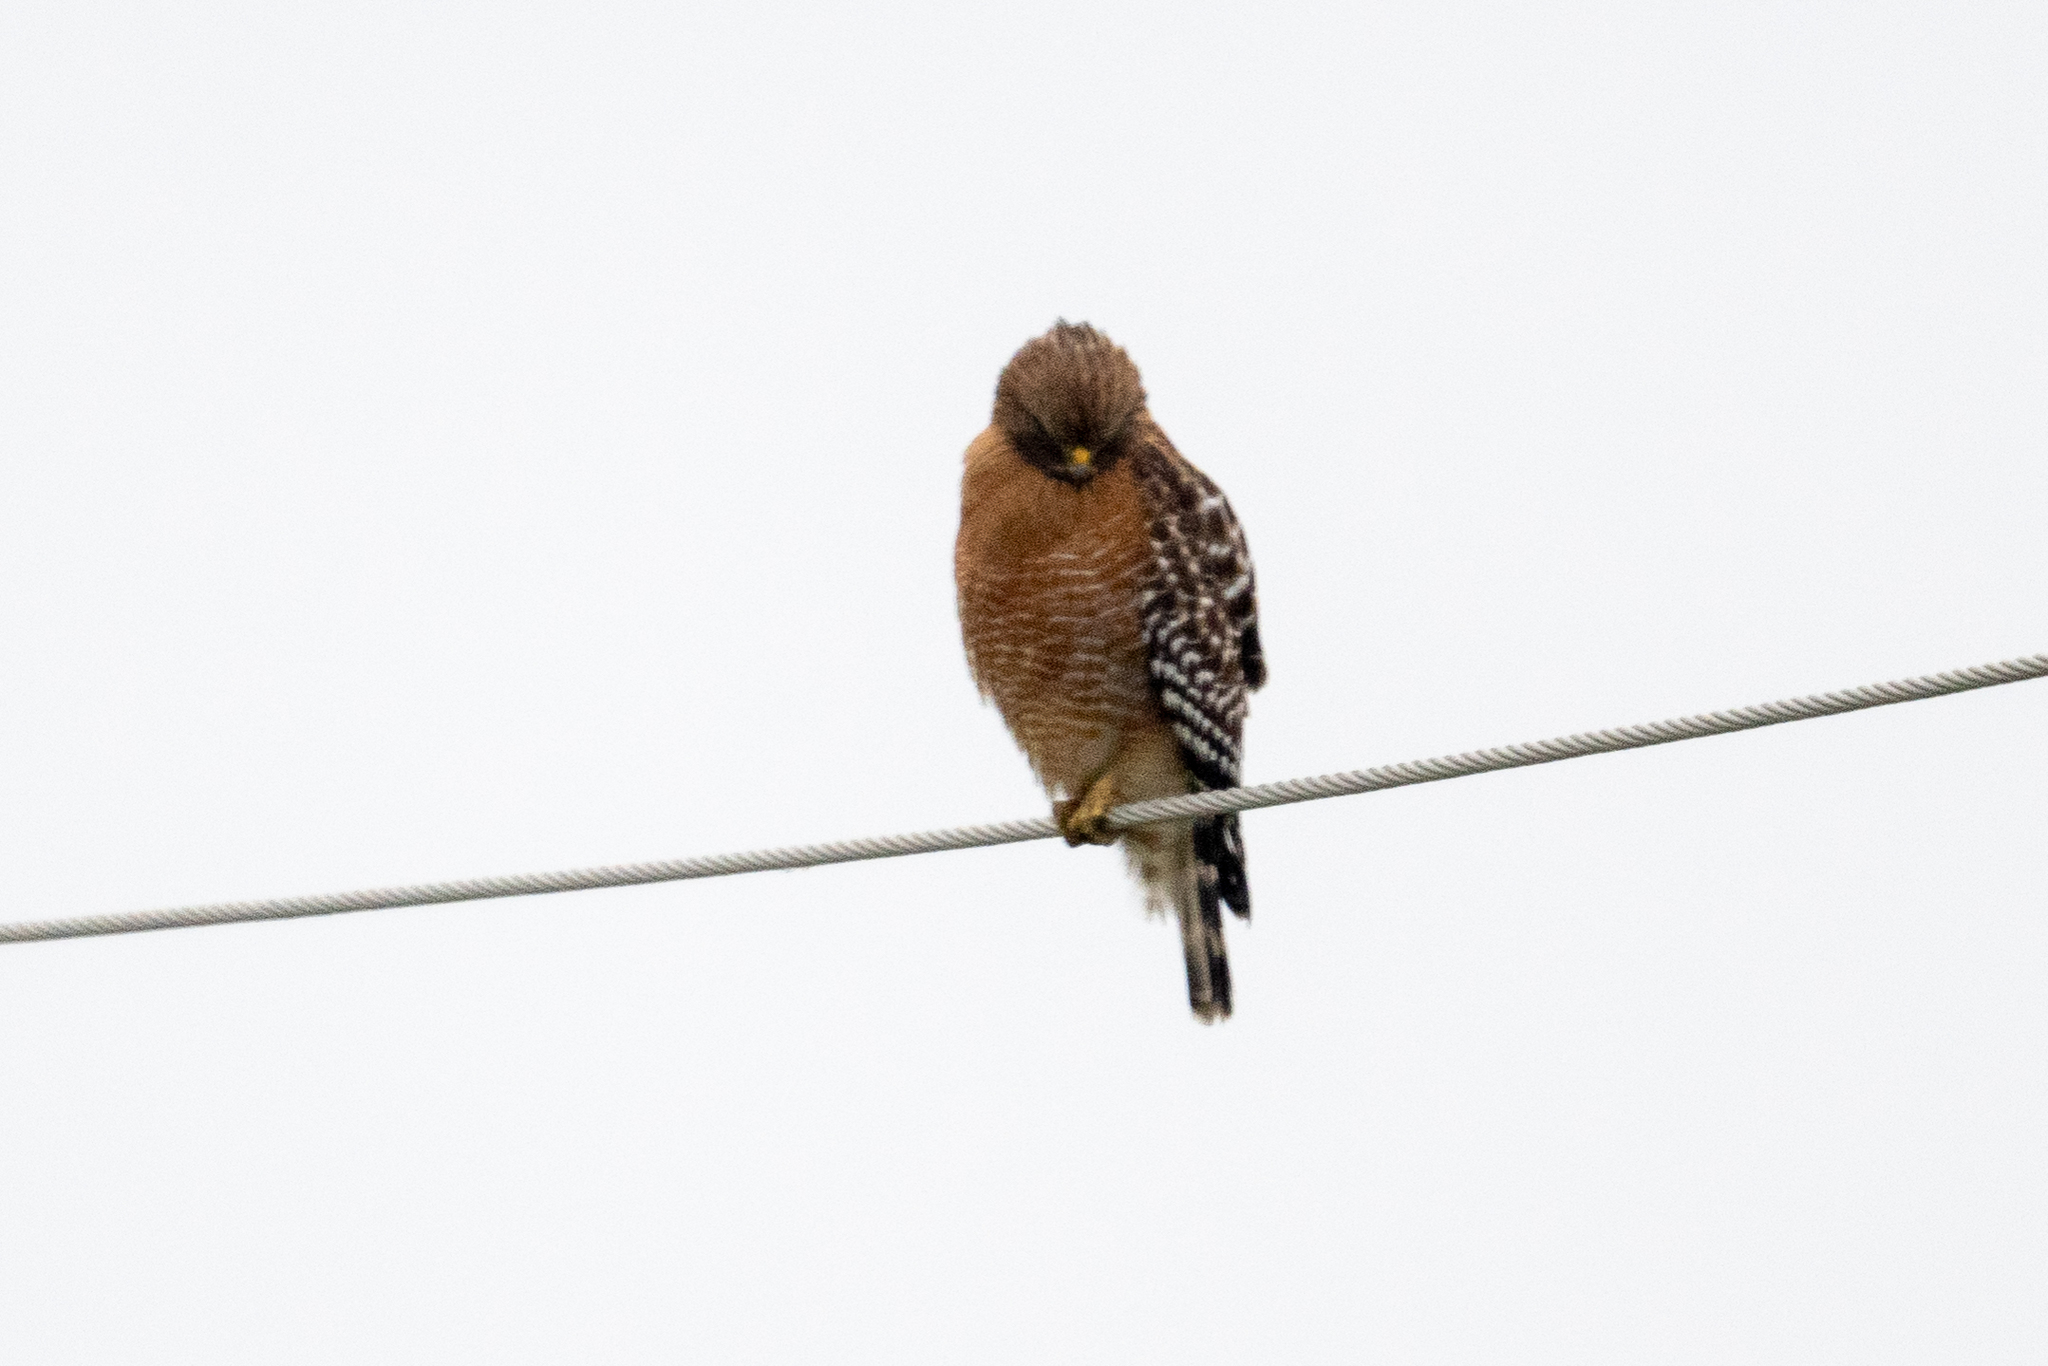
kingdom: Animalia
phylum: Chordata
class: Aves
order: Accipitriformes
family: Accipitridae
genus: Buteo
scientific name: Buteo lineatus
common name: Red-shouldered hawk
